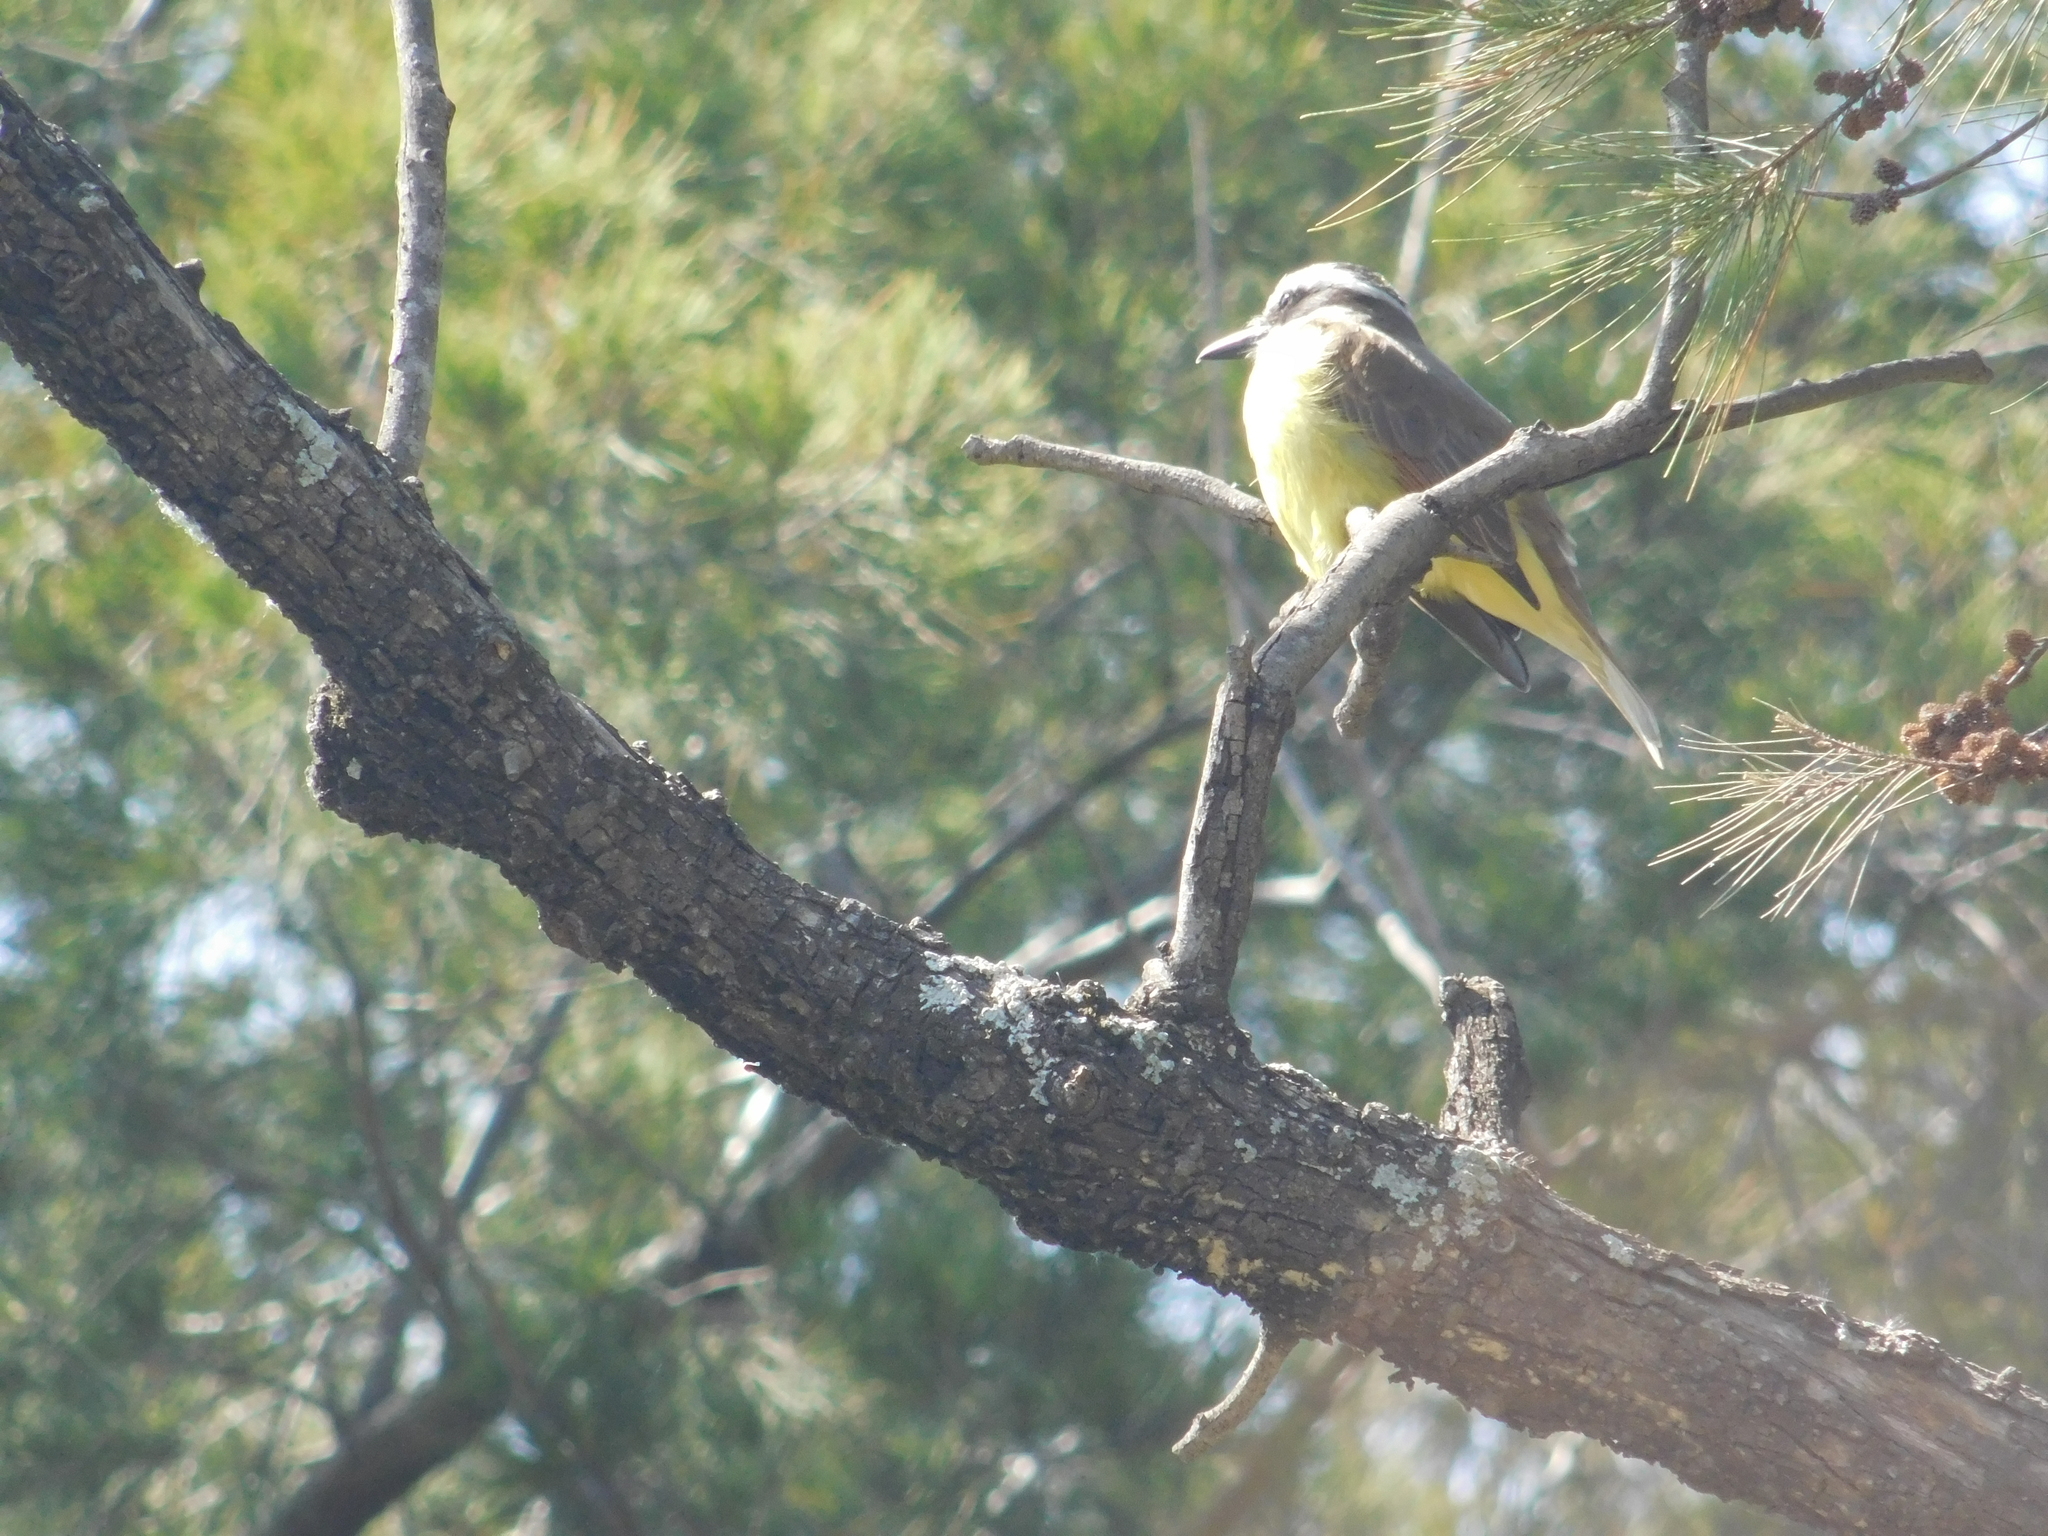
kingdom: Animalia
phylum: Chordata
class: Aves
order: Passeriformes
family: Tyrannidae
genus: Pitangus
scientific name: Pitangus sulphuratus
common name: Great kiskadee
